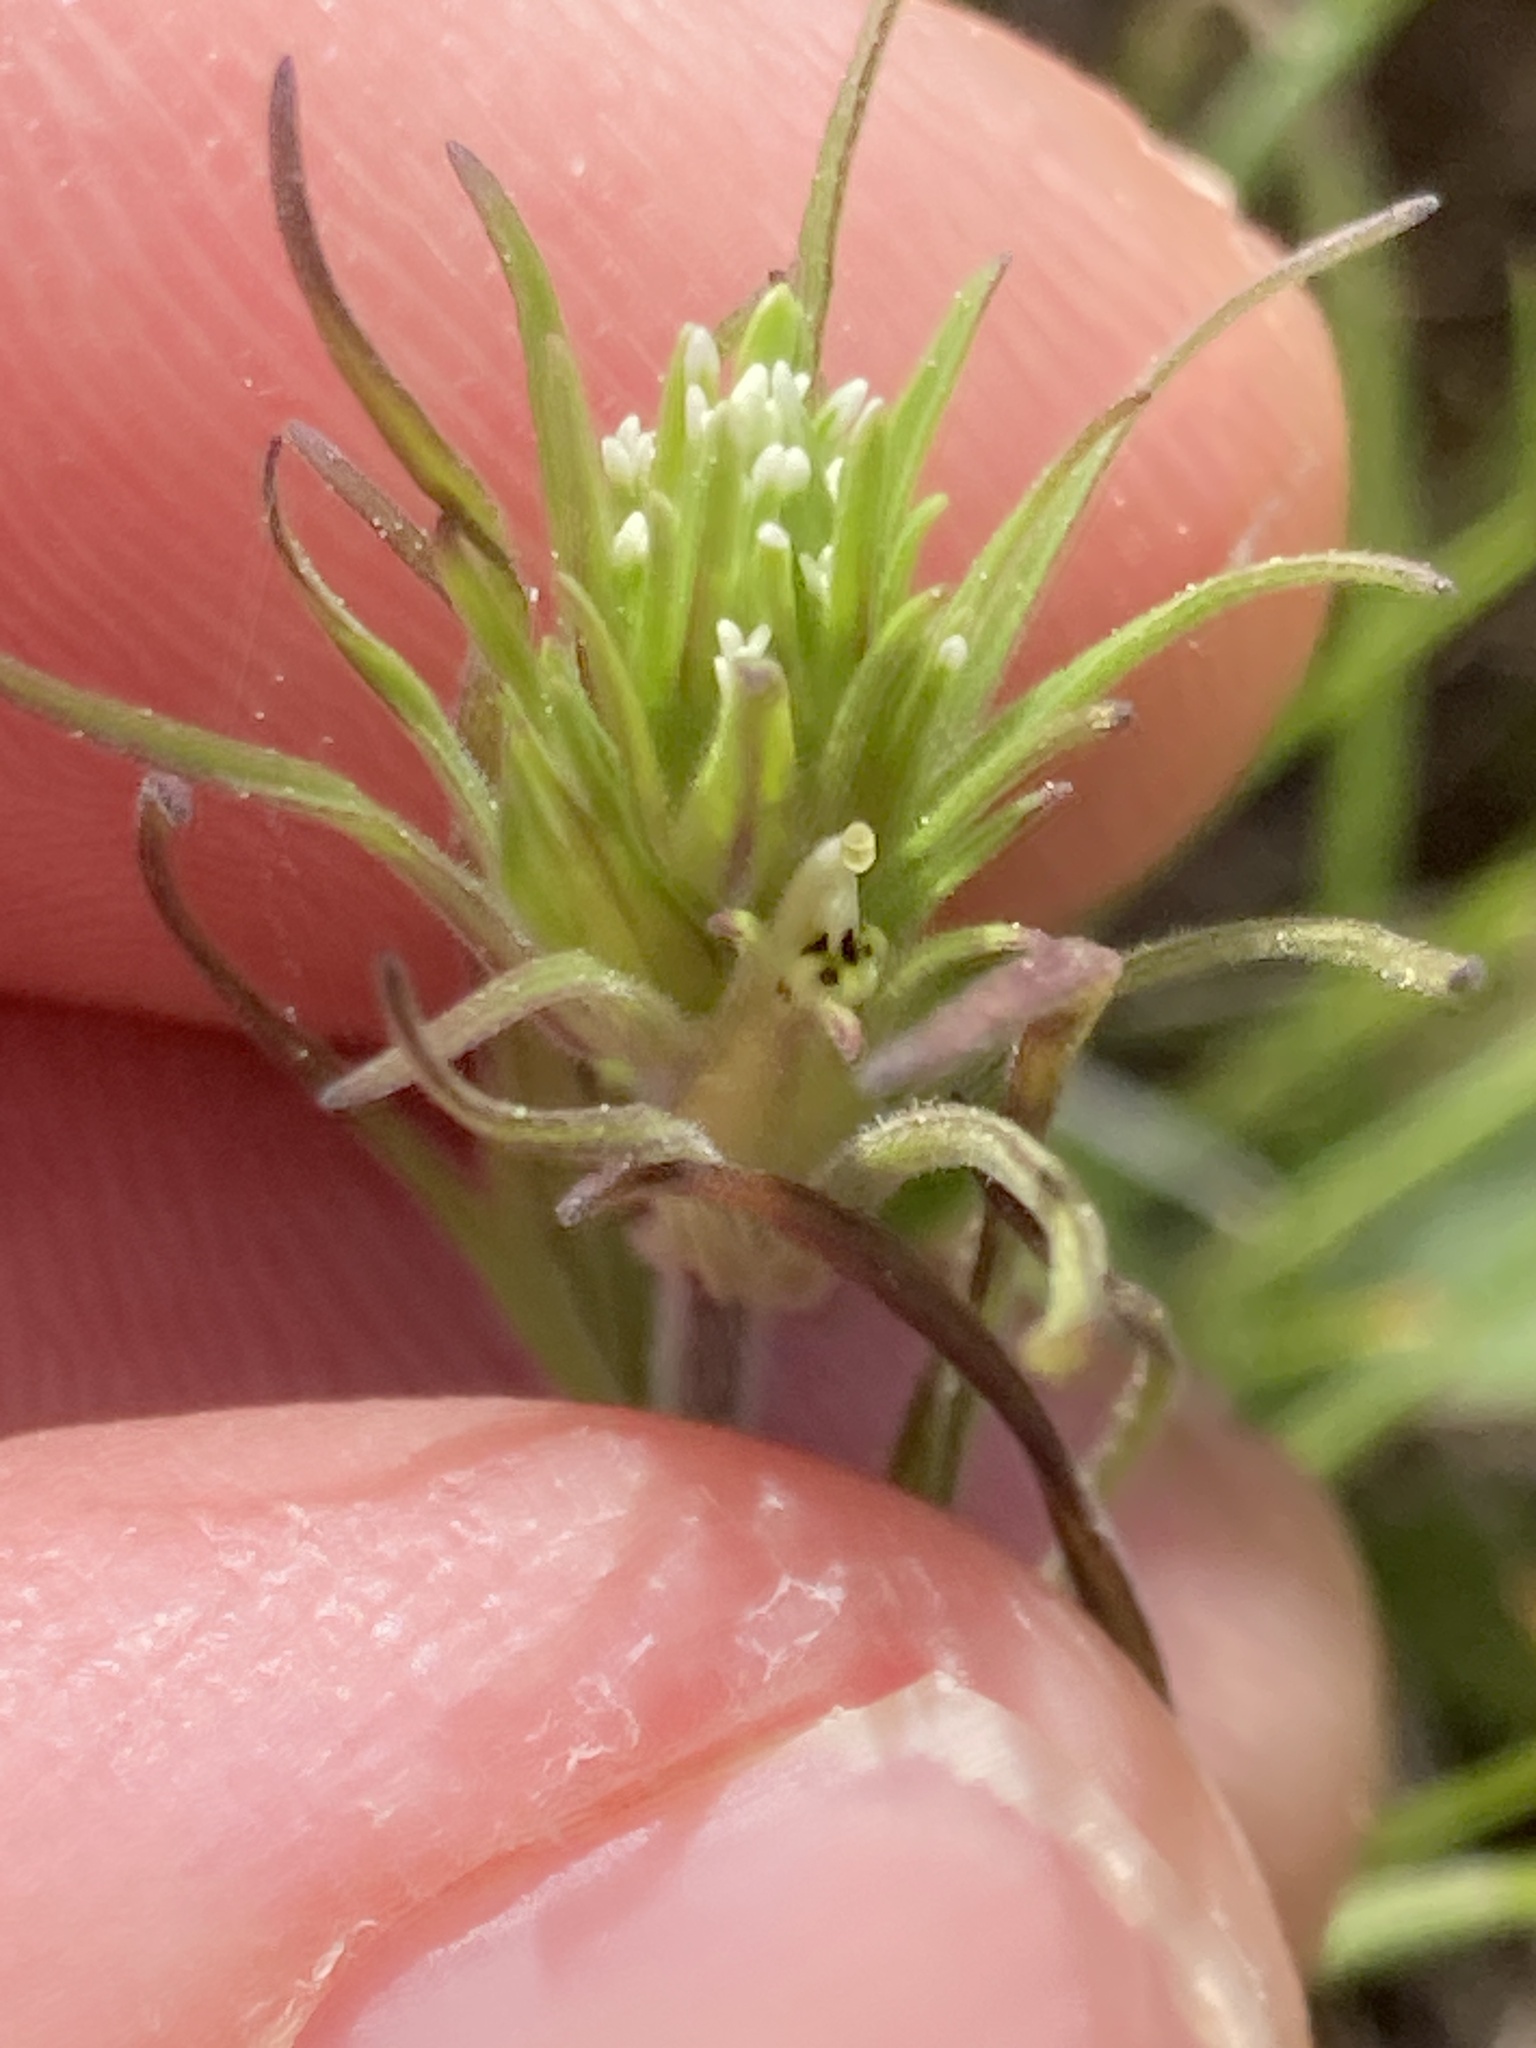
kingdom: Plantae
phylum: Tracheophyta
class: Magnoliopsida
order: Lamiales
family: Orobanchaceae
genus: Castilleja
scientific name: Castilleja attenuata
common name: Valley tassels
